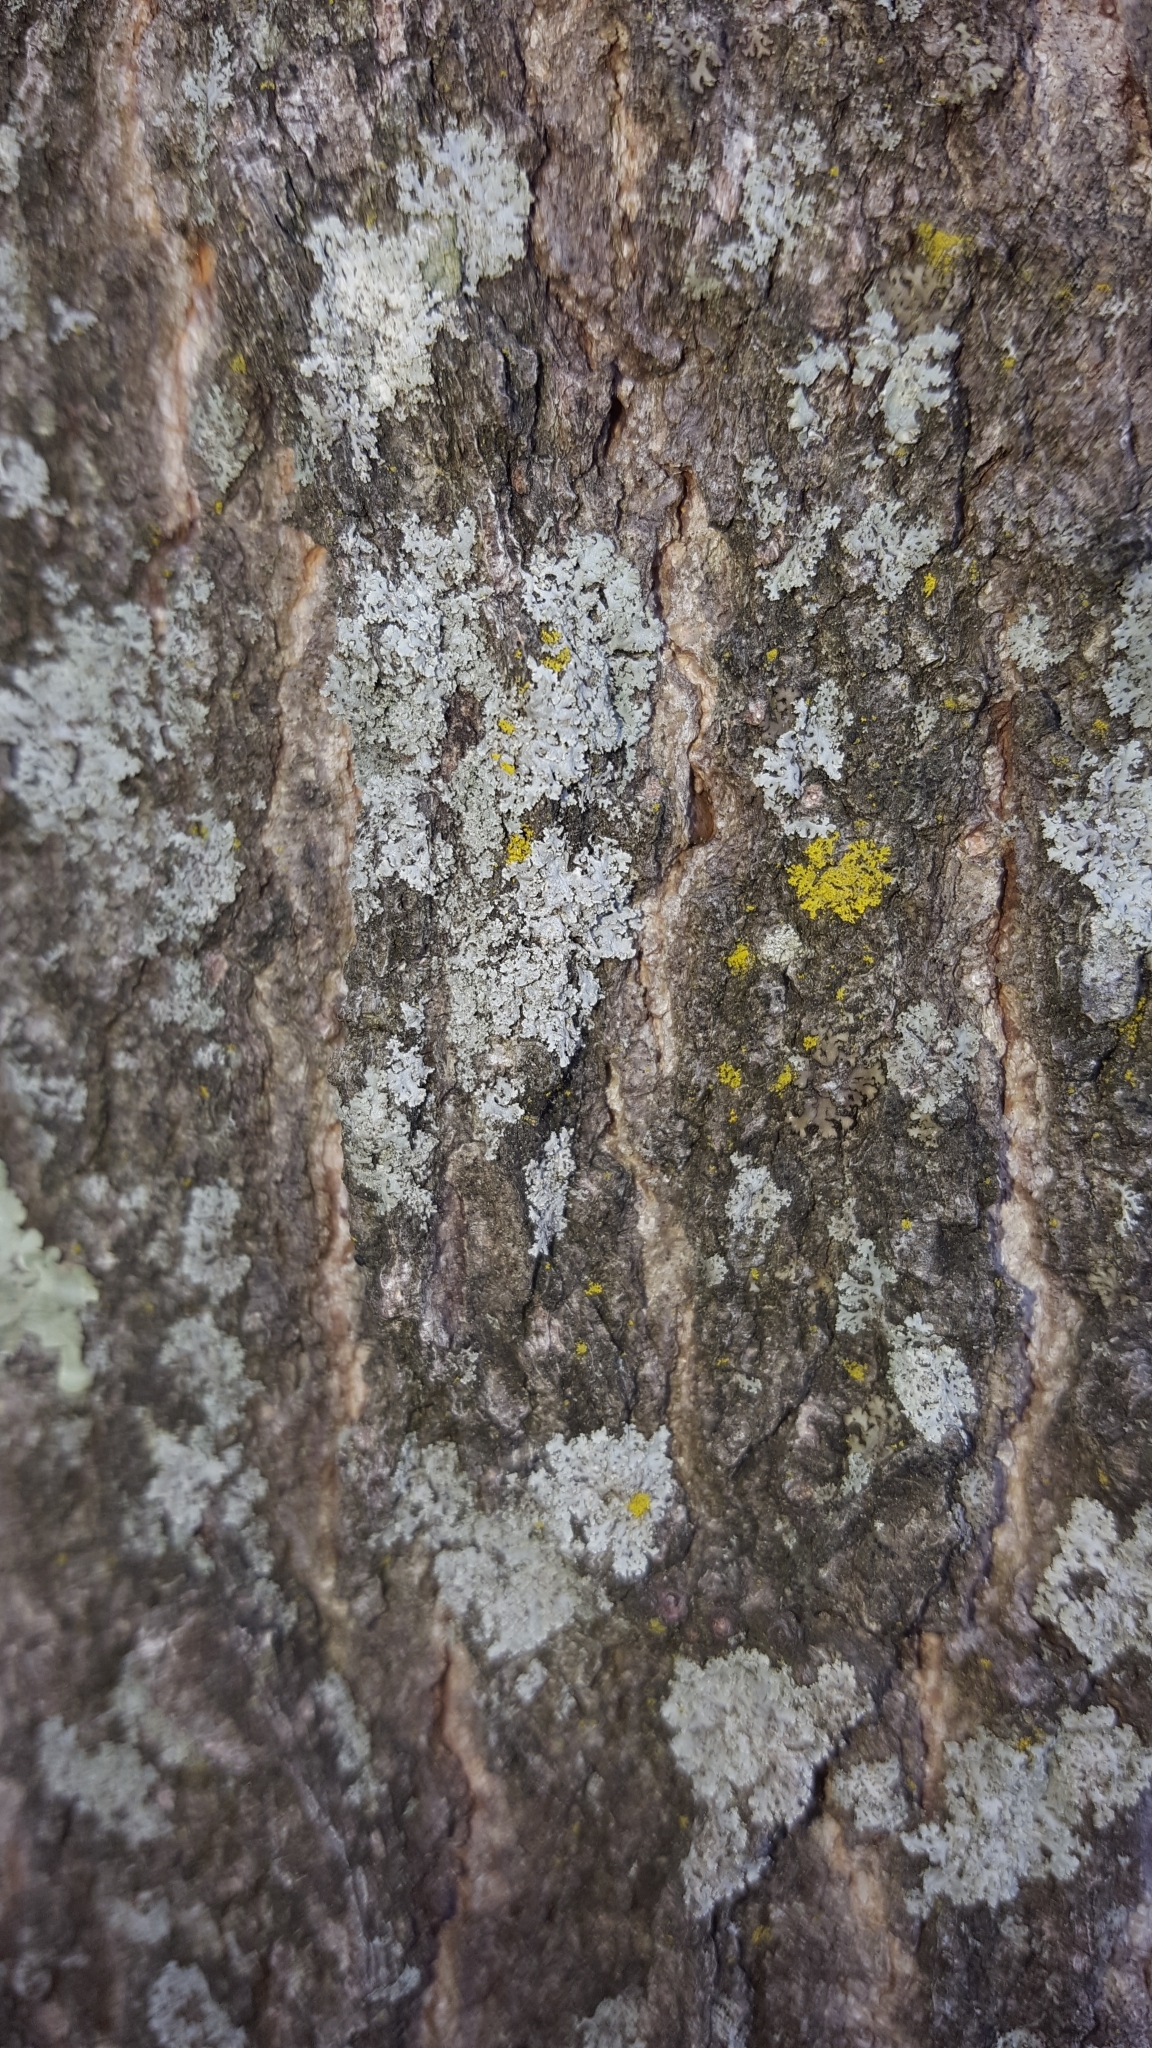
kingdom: Fungi
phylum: Ascomycota
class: Lecanoromycetes
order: Caliciales
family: Physciaceae
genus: Physcia
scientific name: Physcia millegrana
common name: Rosette lichen
